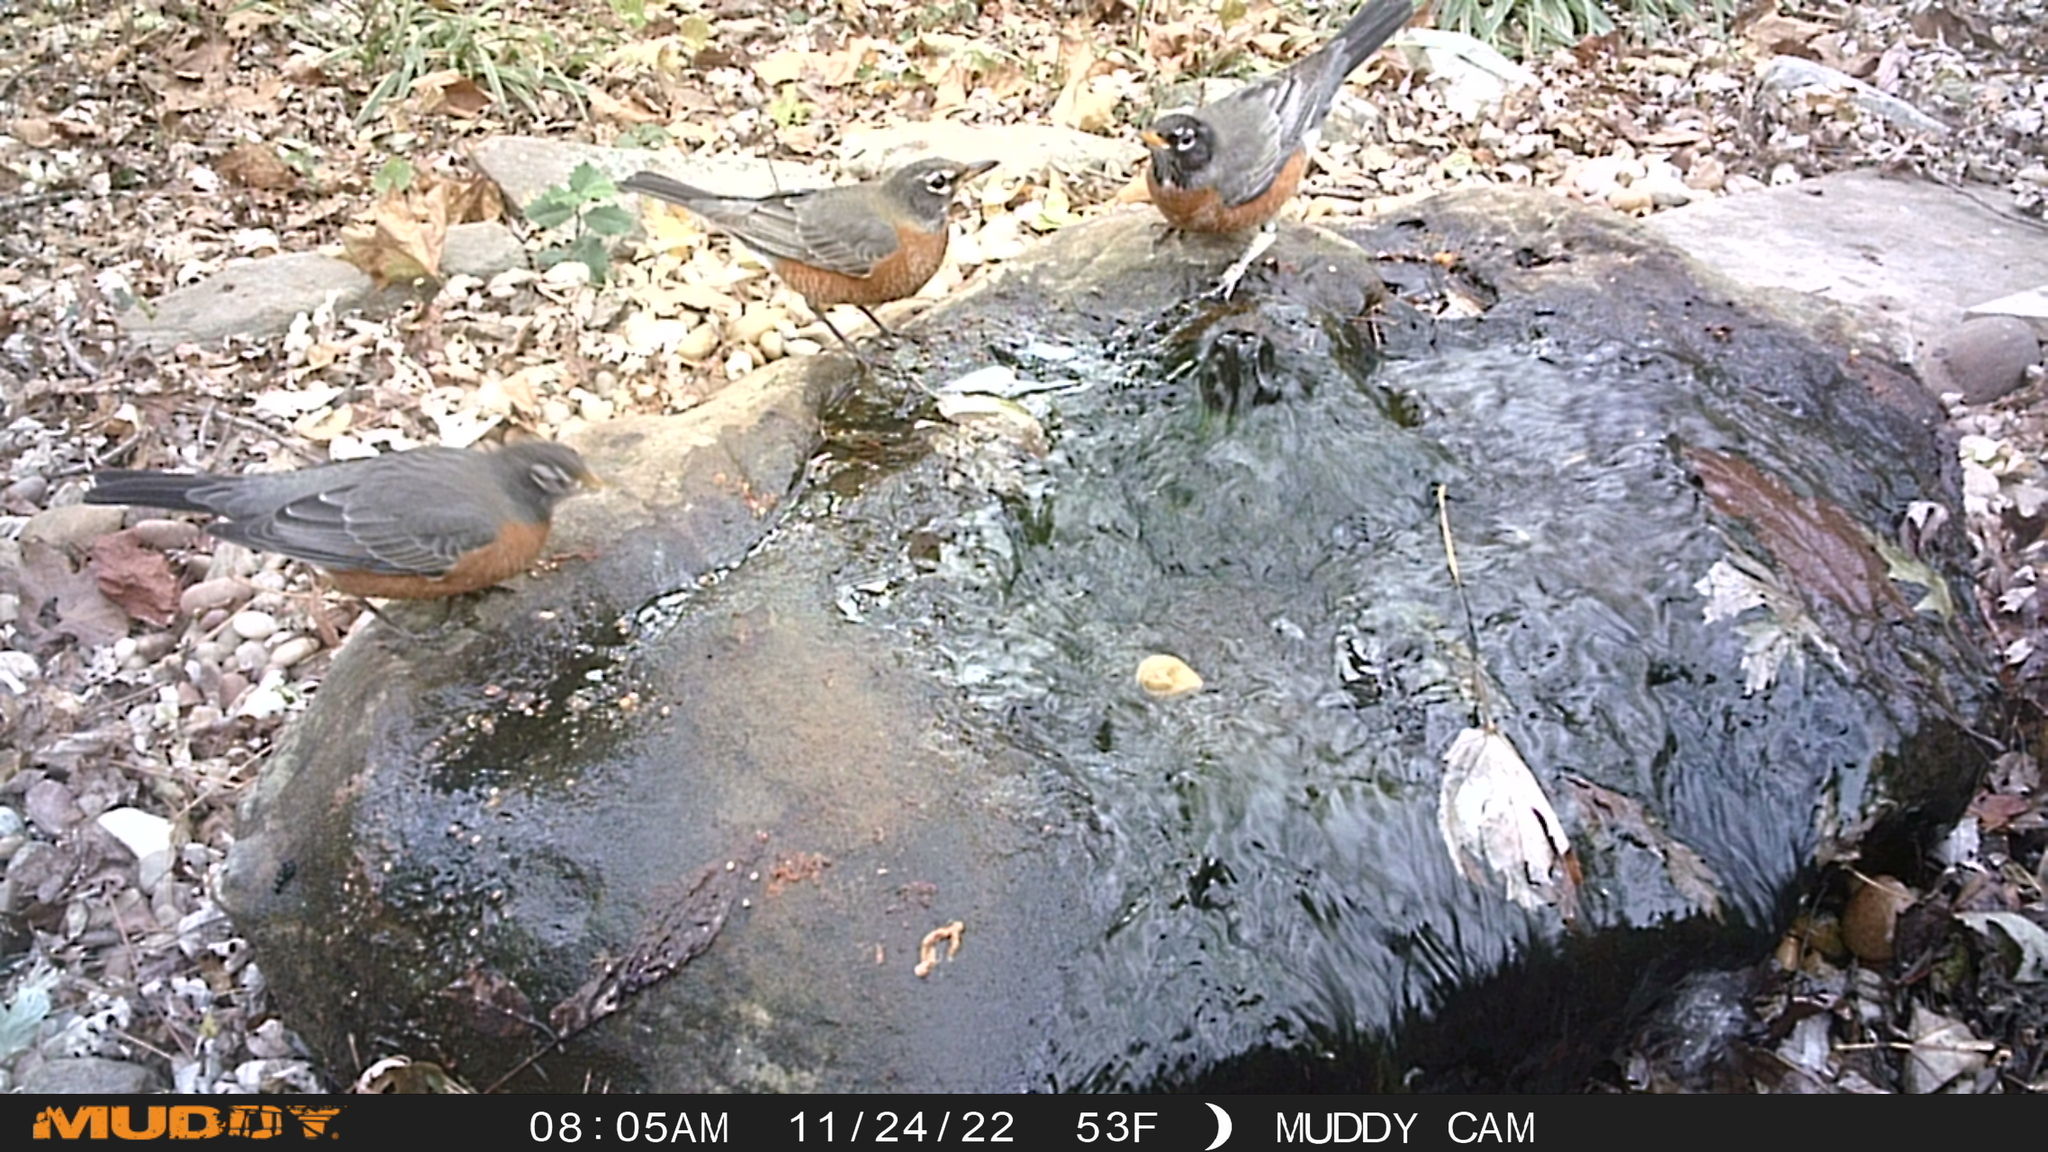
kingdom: Animalia
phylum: Chordata
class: Aves
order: Passeriformes
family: Turdidae
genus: Turdus
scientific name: Turdus migratorius
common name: American robin
